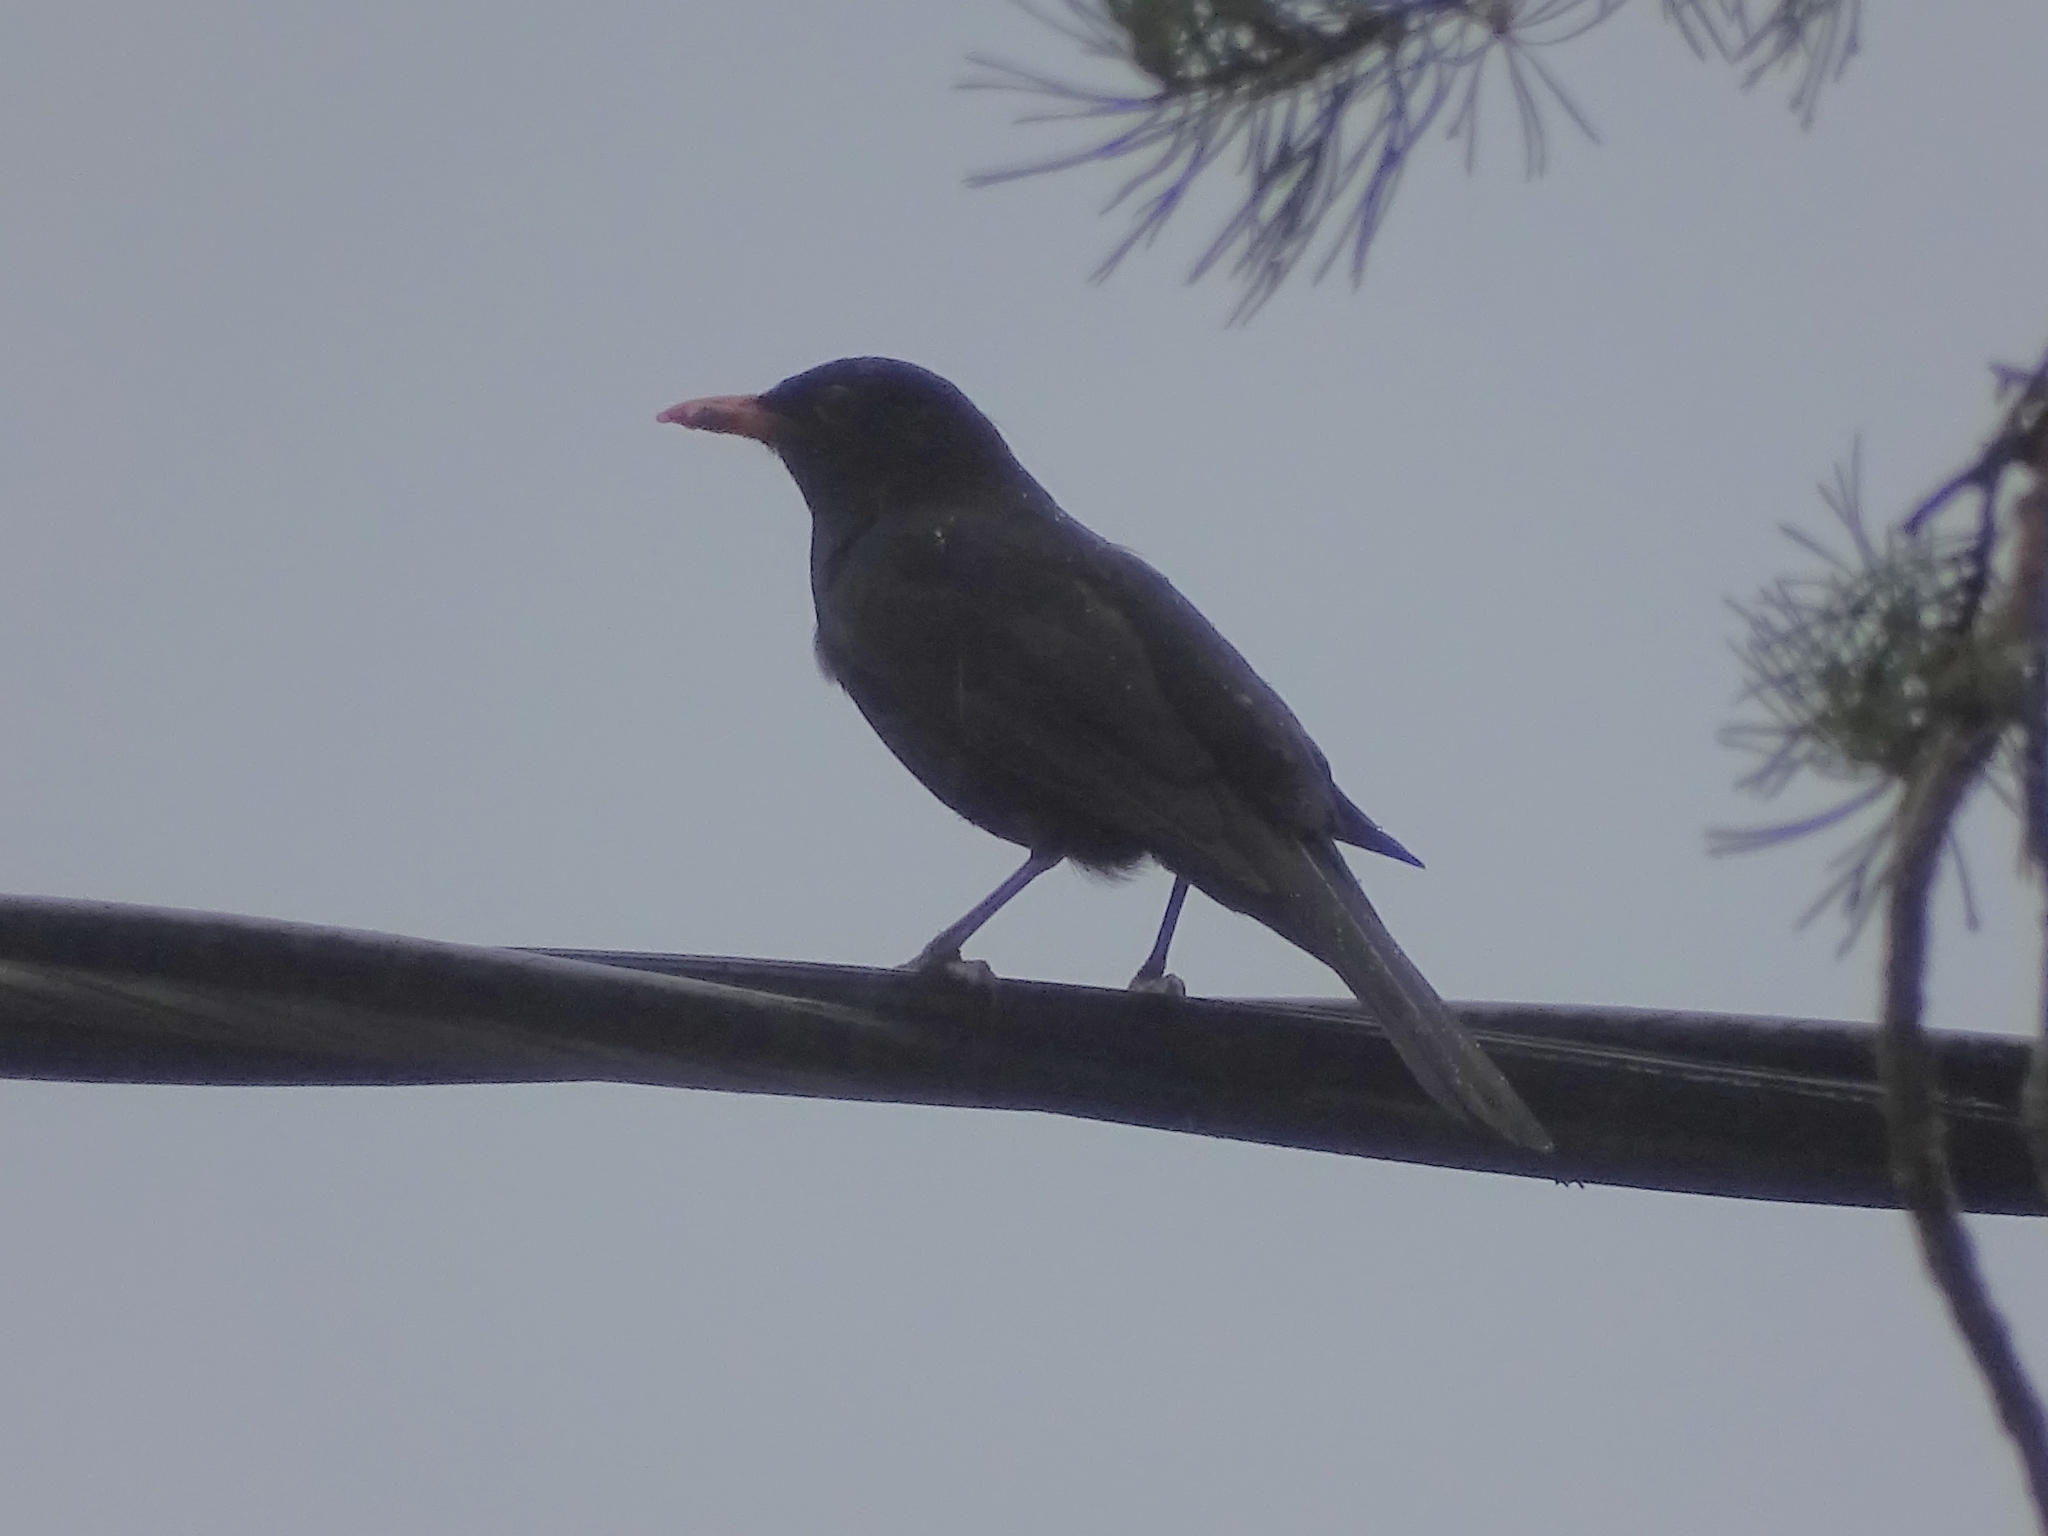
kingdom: Animalia
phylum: Chordata
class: Aves
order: Passeriformes
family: Turdidae
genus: Turdus
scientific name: Turdus merula
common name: Common blackbird
